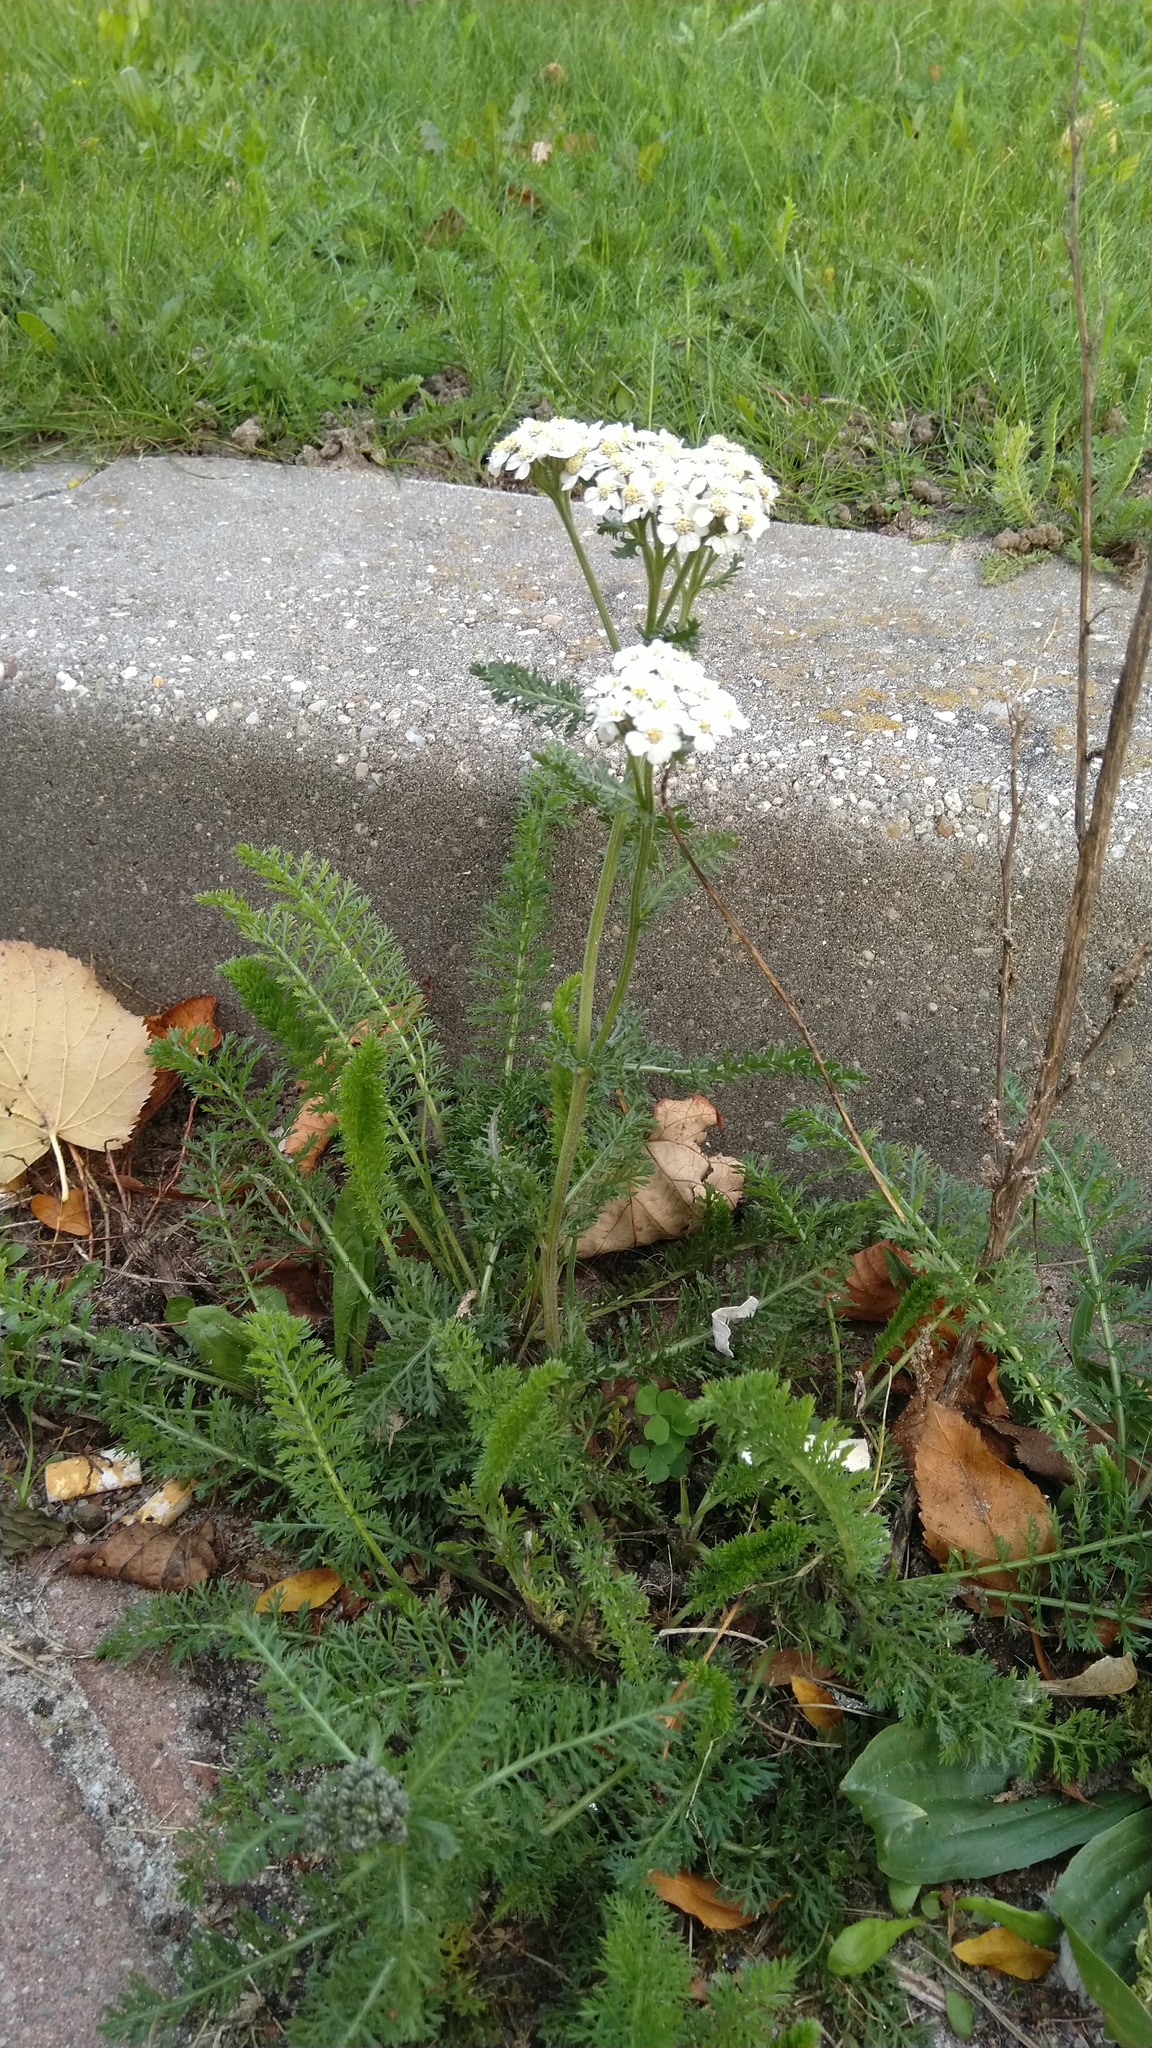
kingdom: Plantae
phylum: Tracheophyta
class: Magnoliopsida
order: Asterales
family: Asteraceae
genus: Achillea
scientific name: Achillea millefolium
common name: Yarrow
